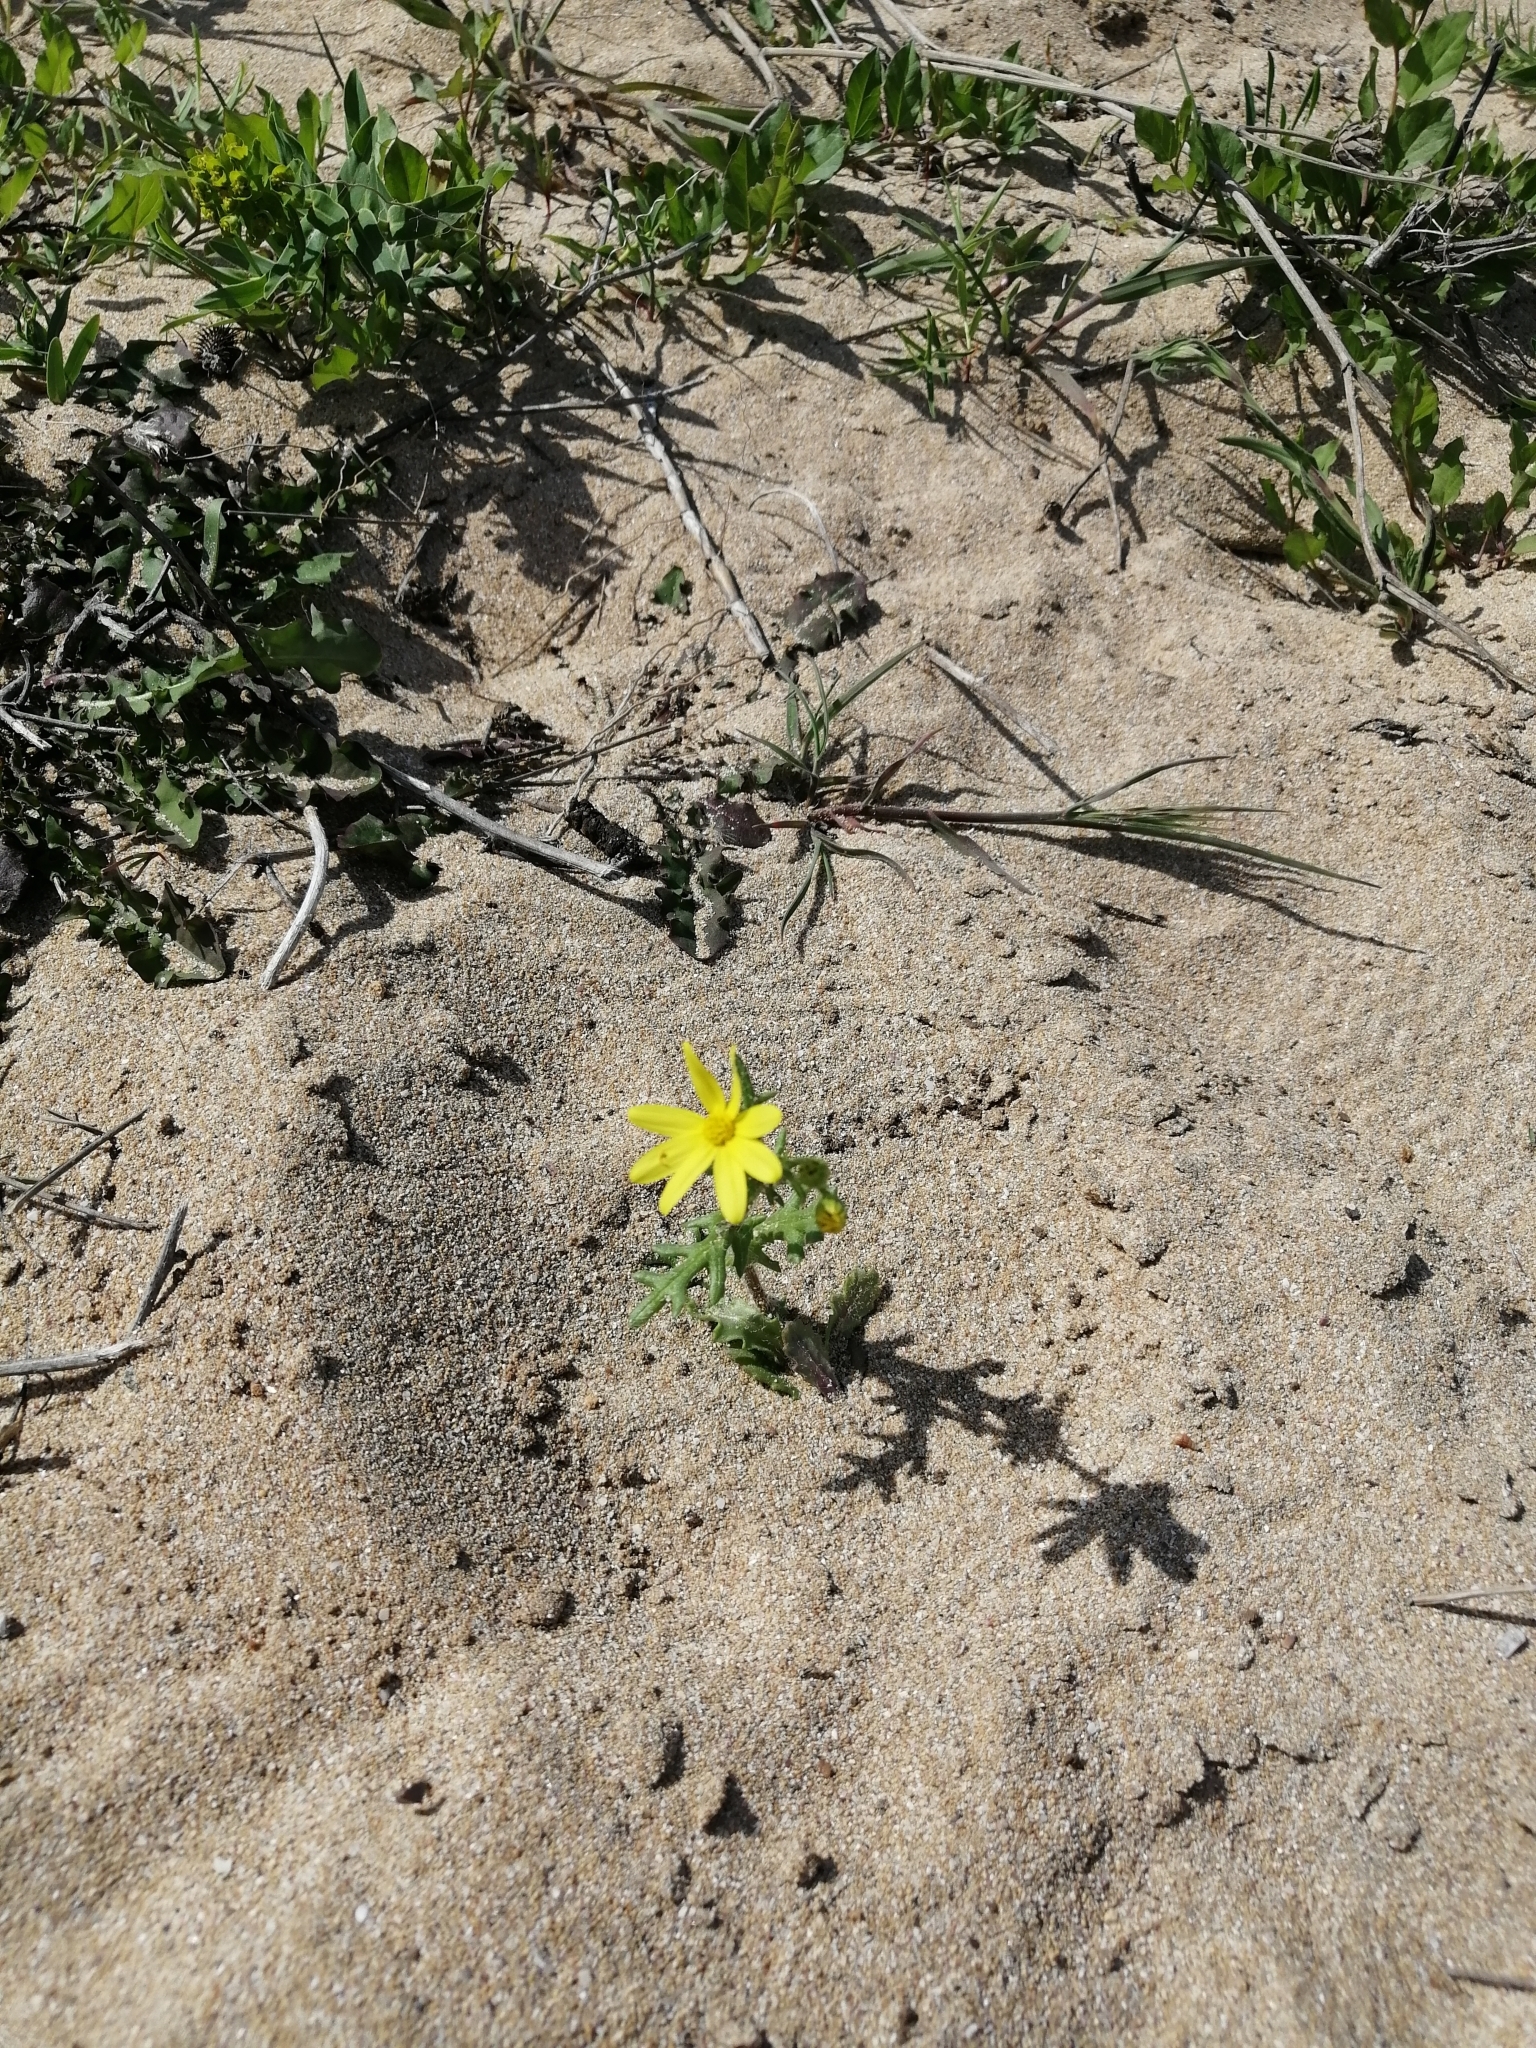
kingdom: Plantae
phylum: Tracheophyta
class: Magnoliopsida
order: Asterales
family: Asteraceae
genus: Senecio
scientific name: Senecio vernalis
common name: Eastern groundsel
